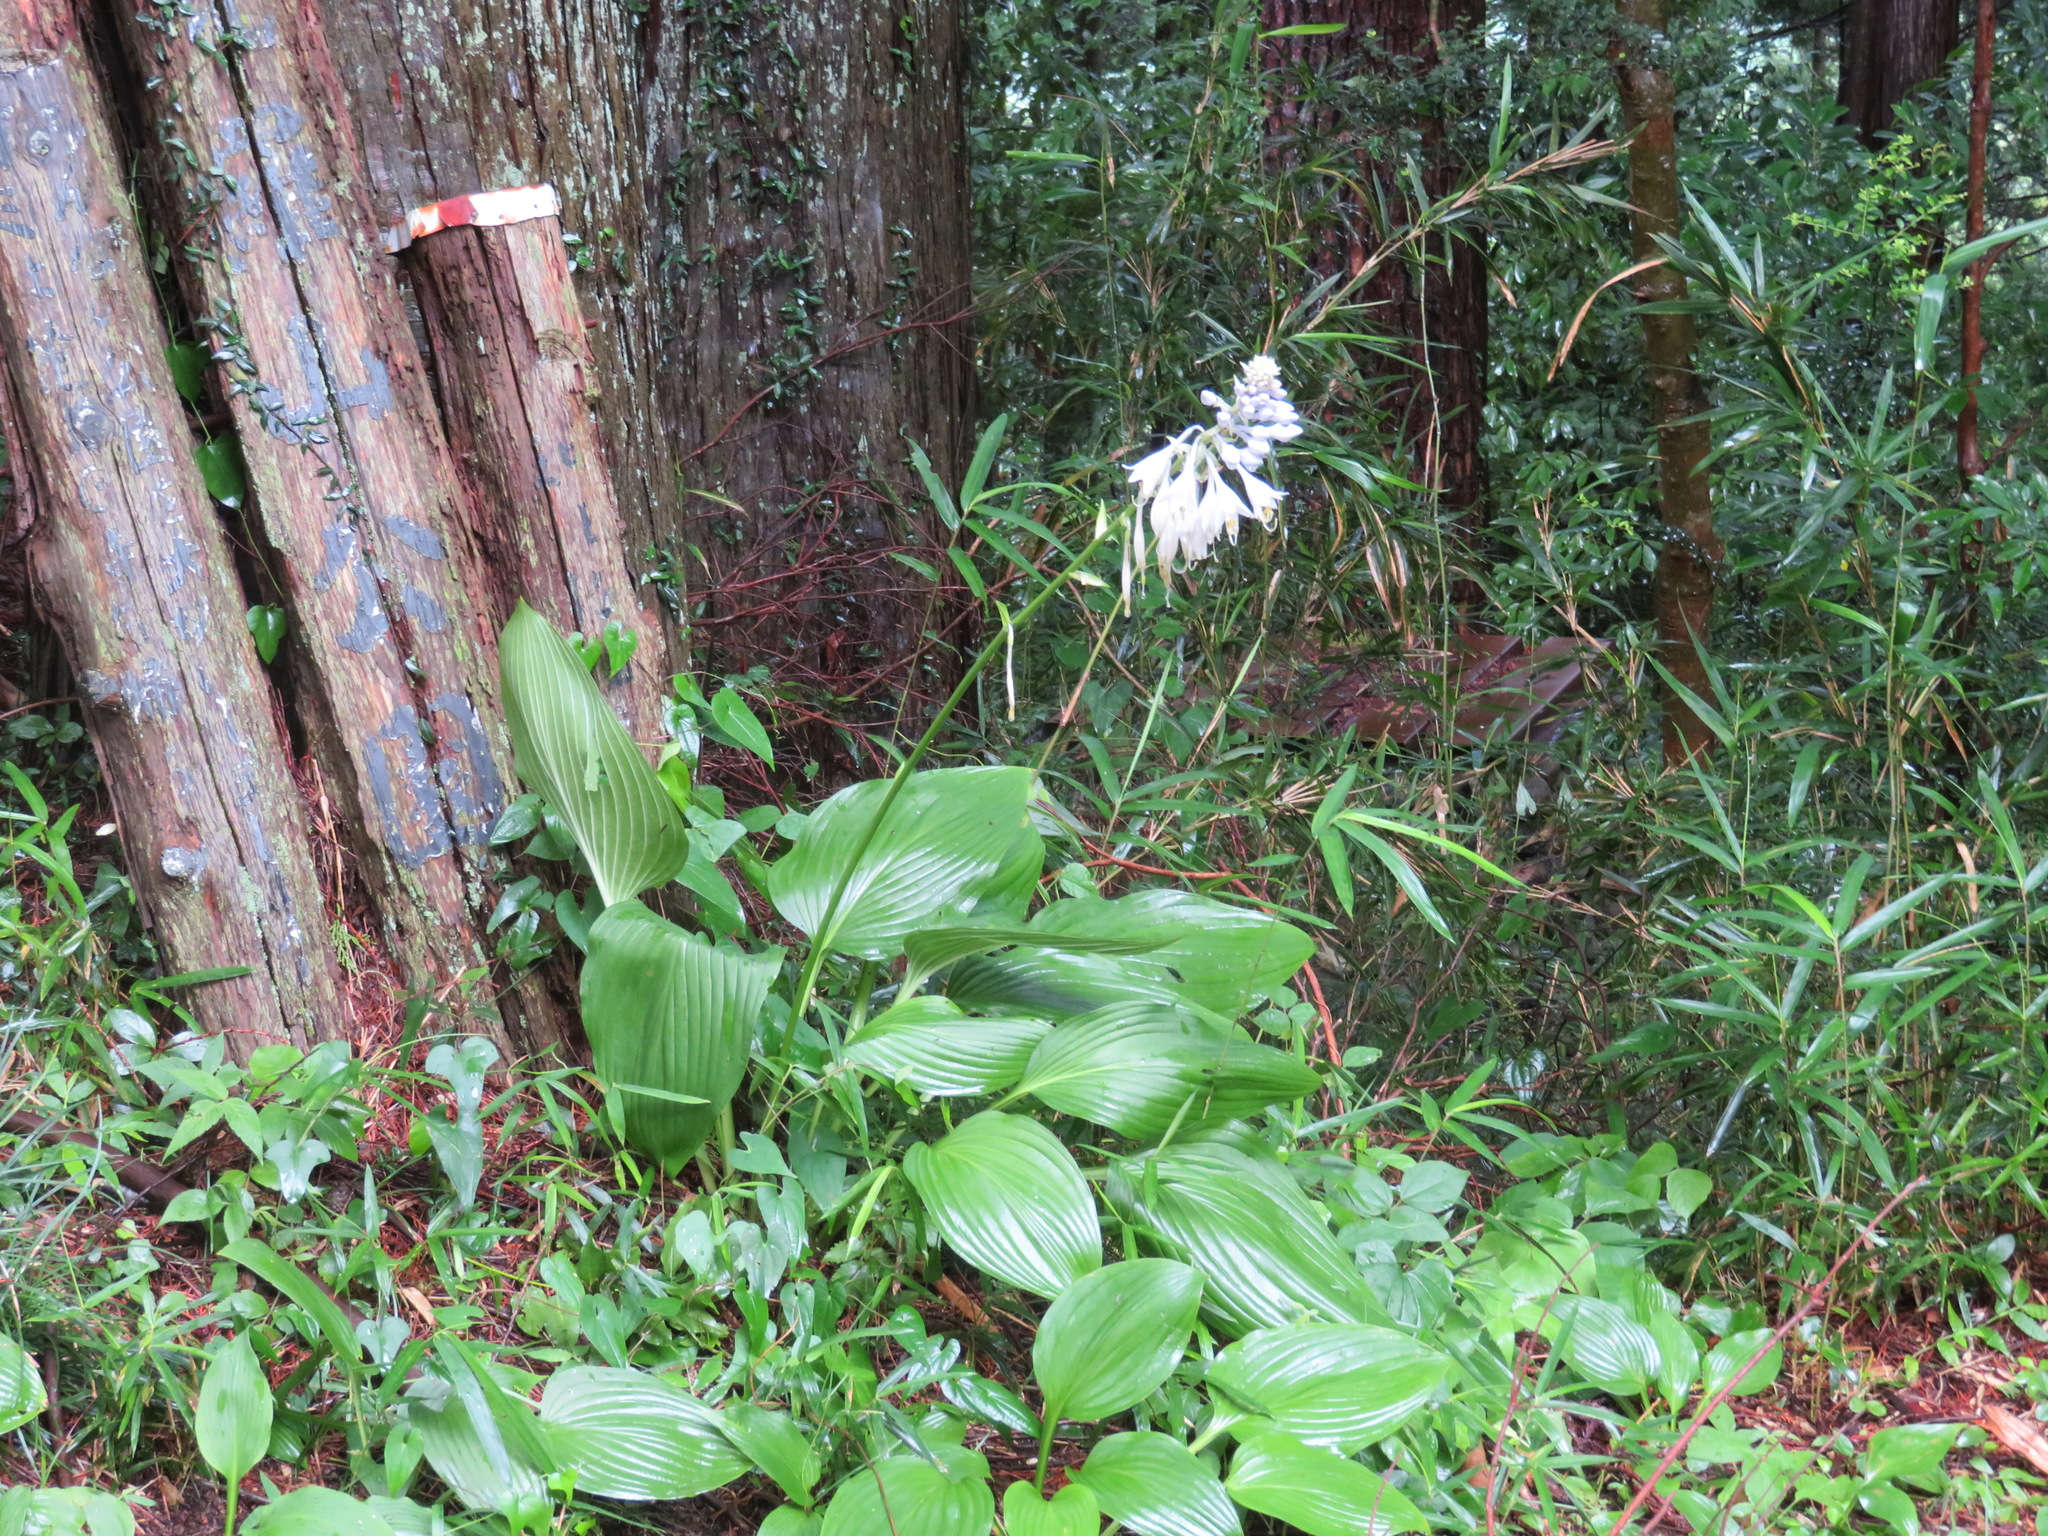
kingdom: Plantae
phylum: Tracheophyta
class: Liliopsida
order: Asparagales
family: Asparagaceae
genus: Hosta
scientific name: Hosta sieboldiana
